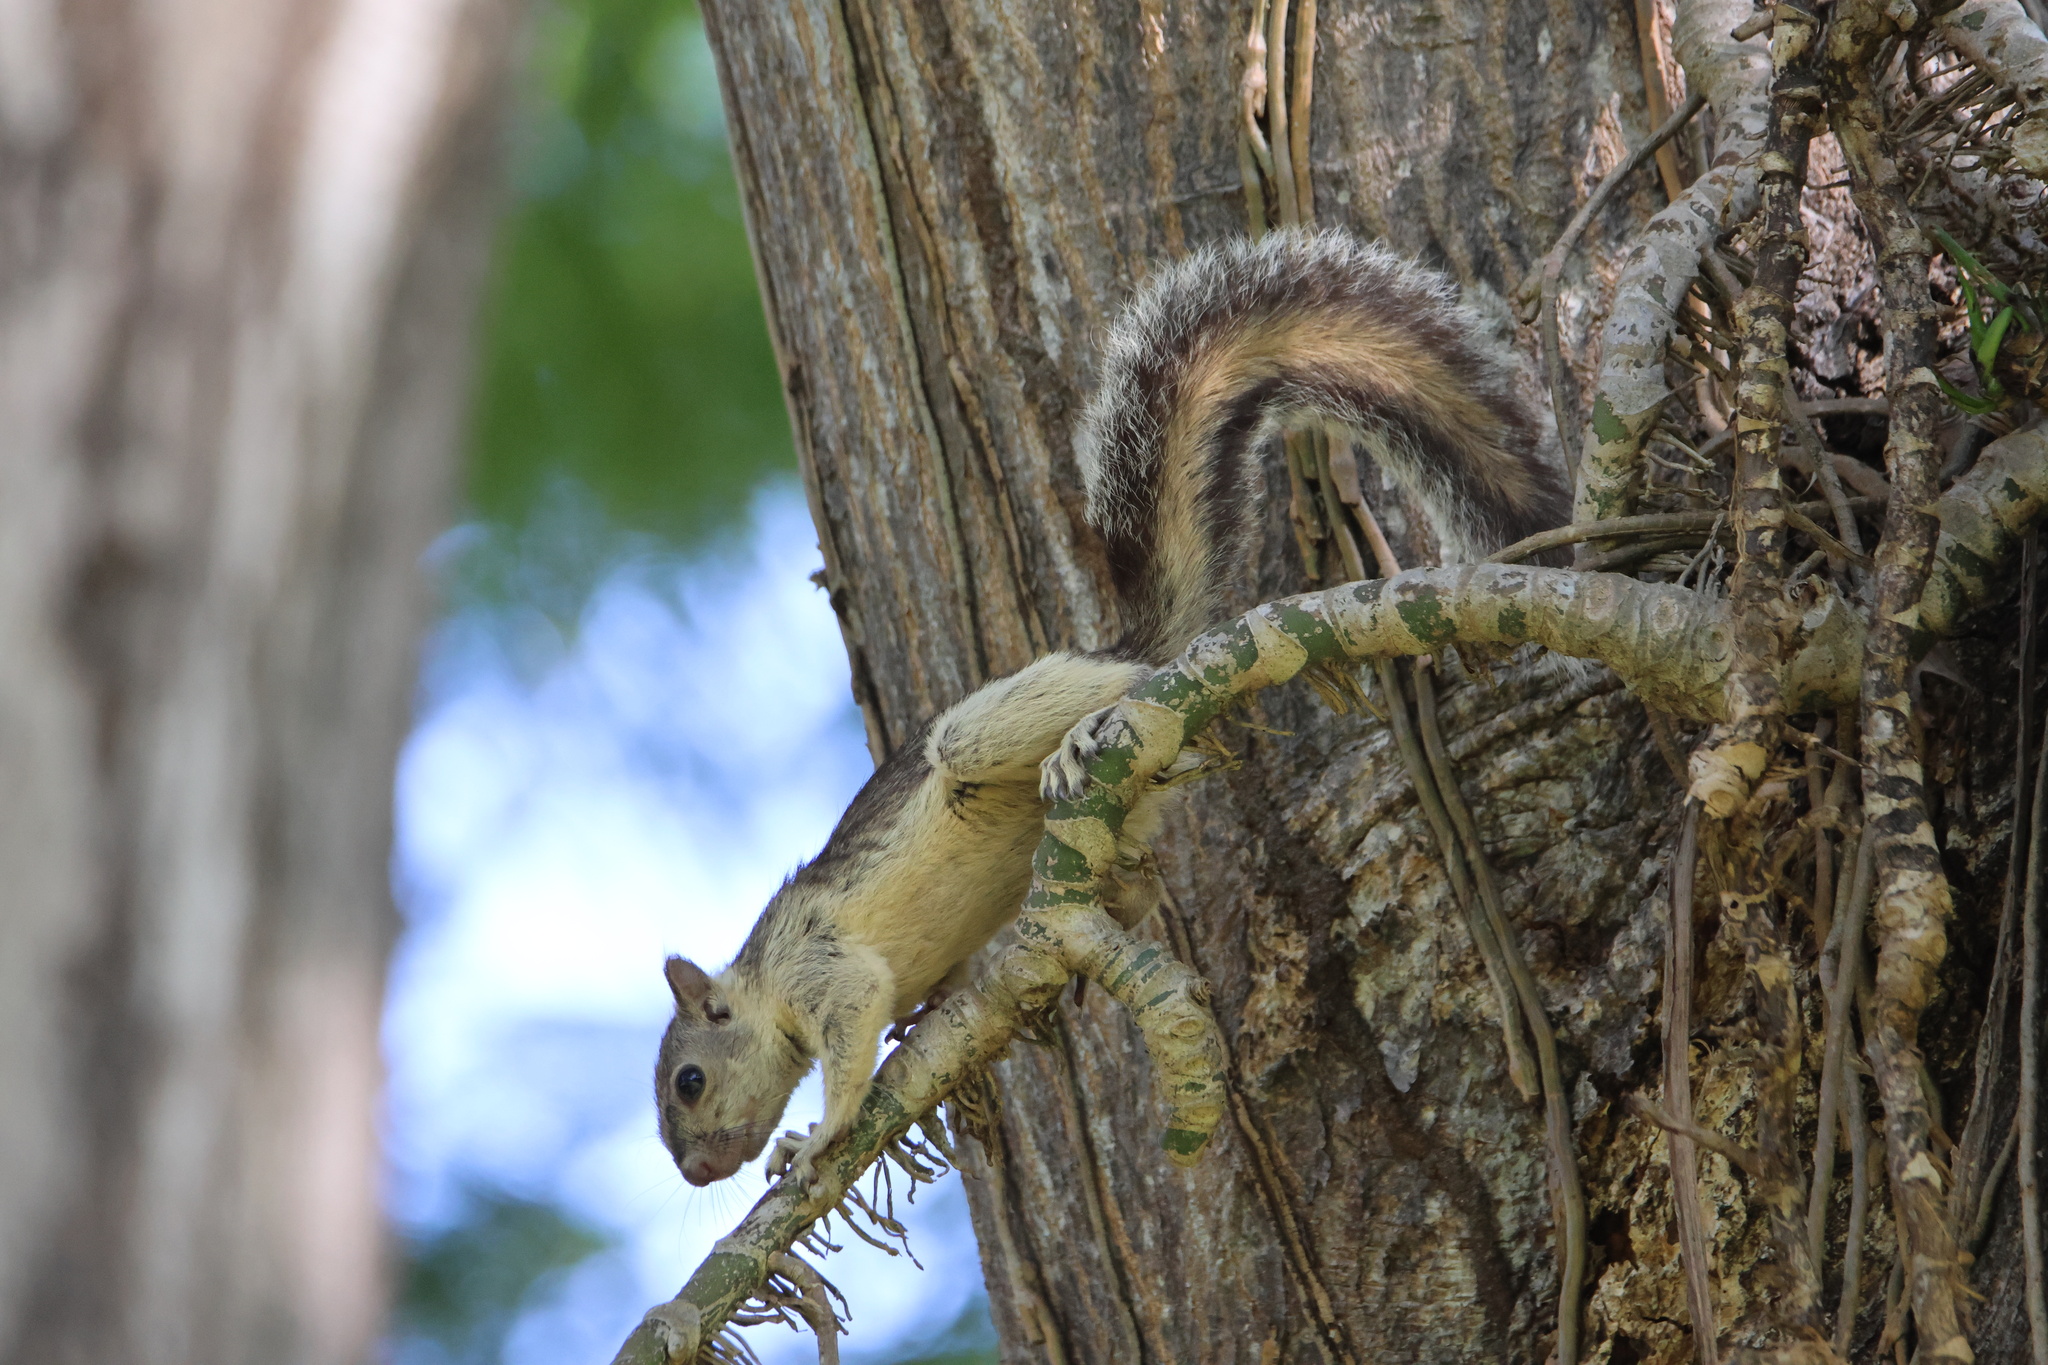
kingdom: Animalia
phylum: Chordata
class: Mammalia
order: Rodentia
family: Sciuridae
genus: Sciurus
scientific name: Sciurus variegatoides
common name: Variegated squirrel
